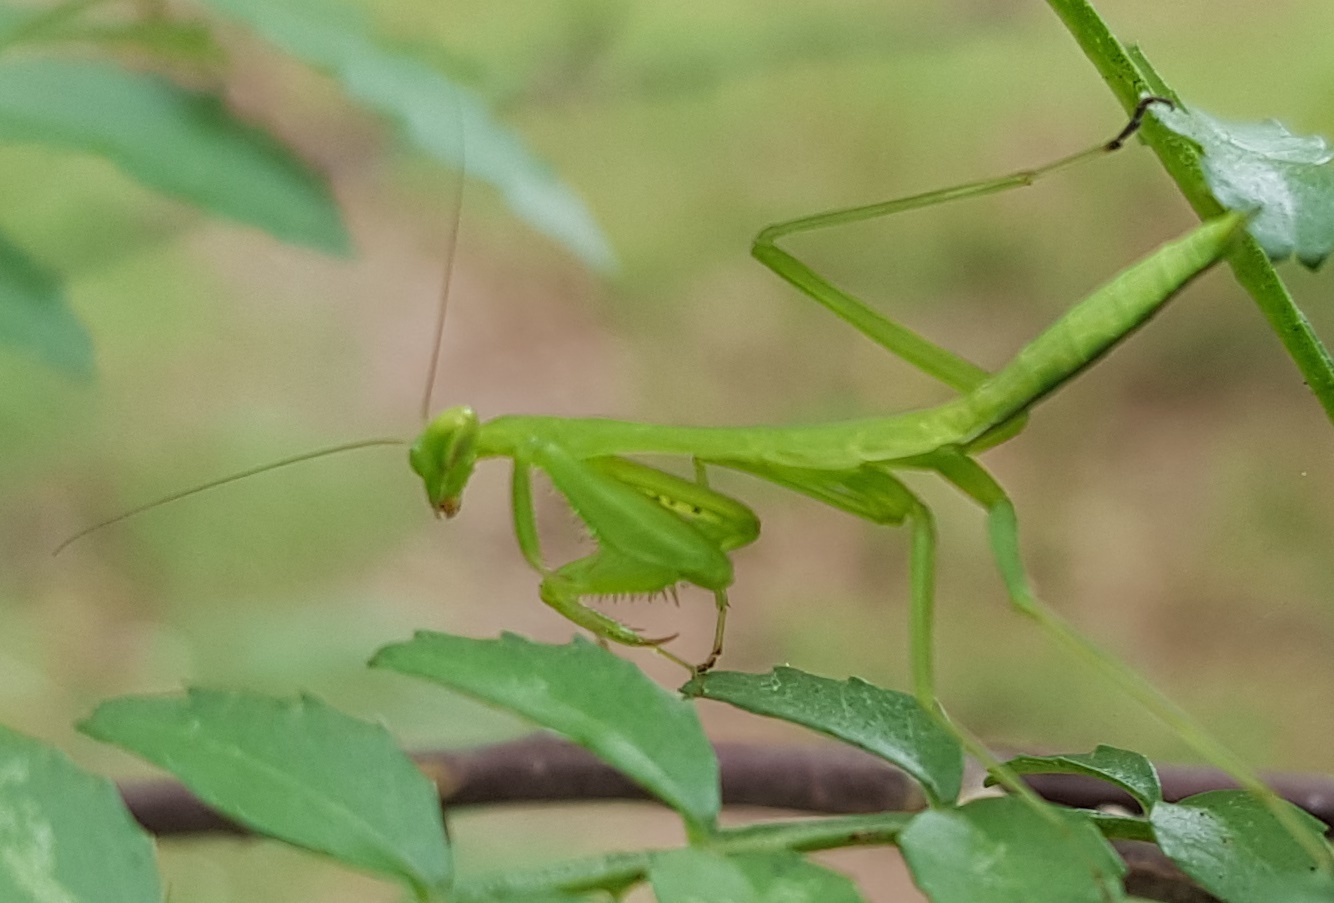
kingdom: Animalia
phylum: Arthropoda
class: Insecta
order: Mantodea
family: Miomantidae
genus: Miomantis
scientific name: Miomantis caffra
